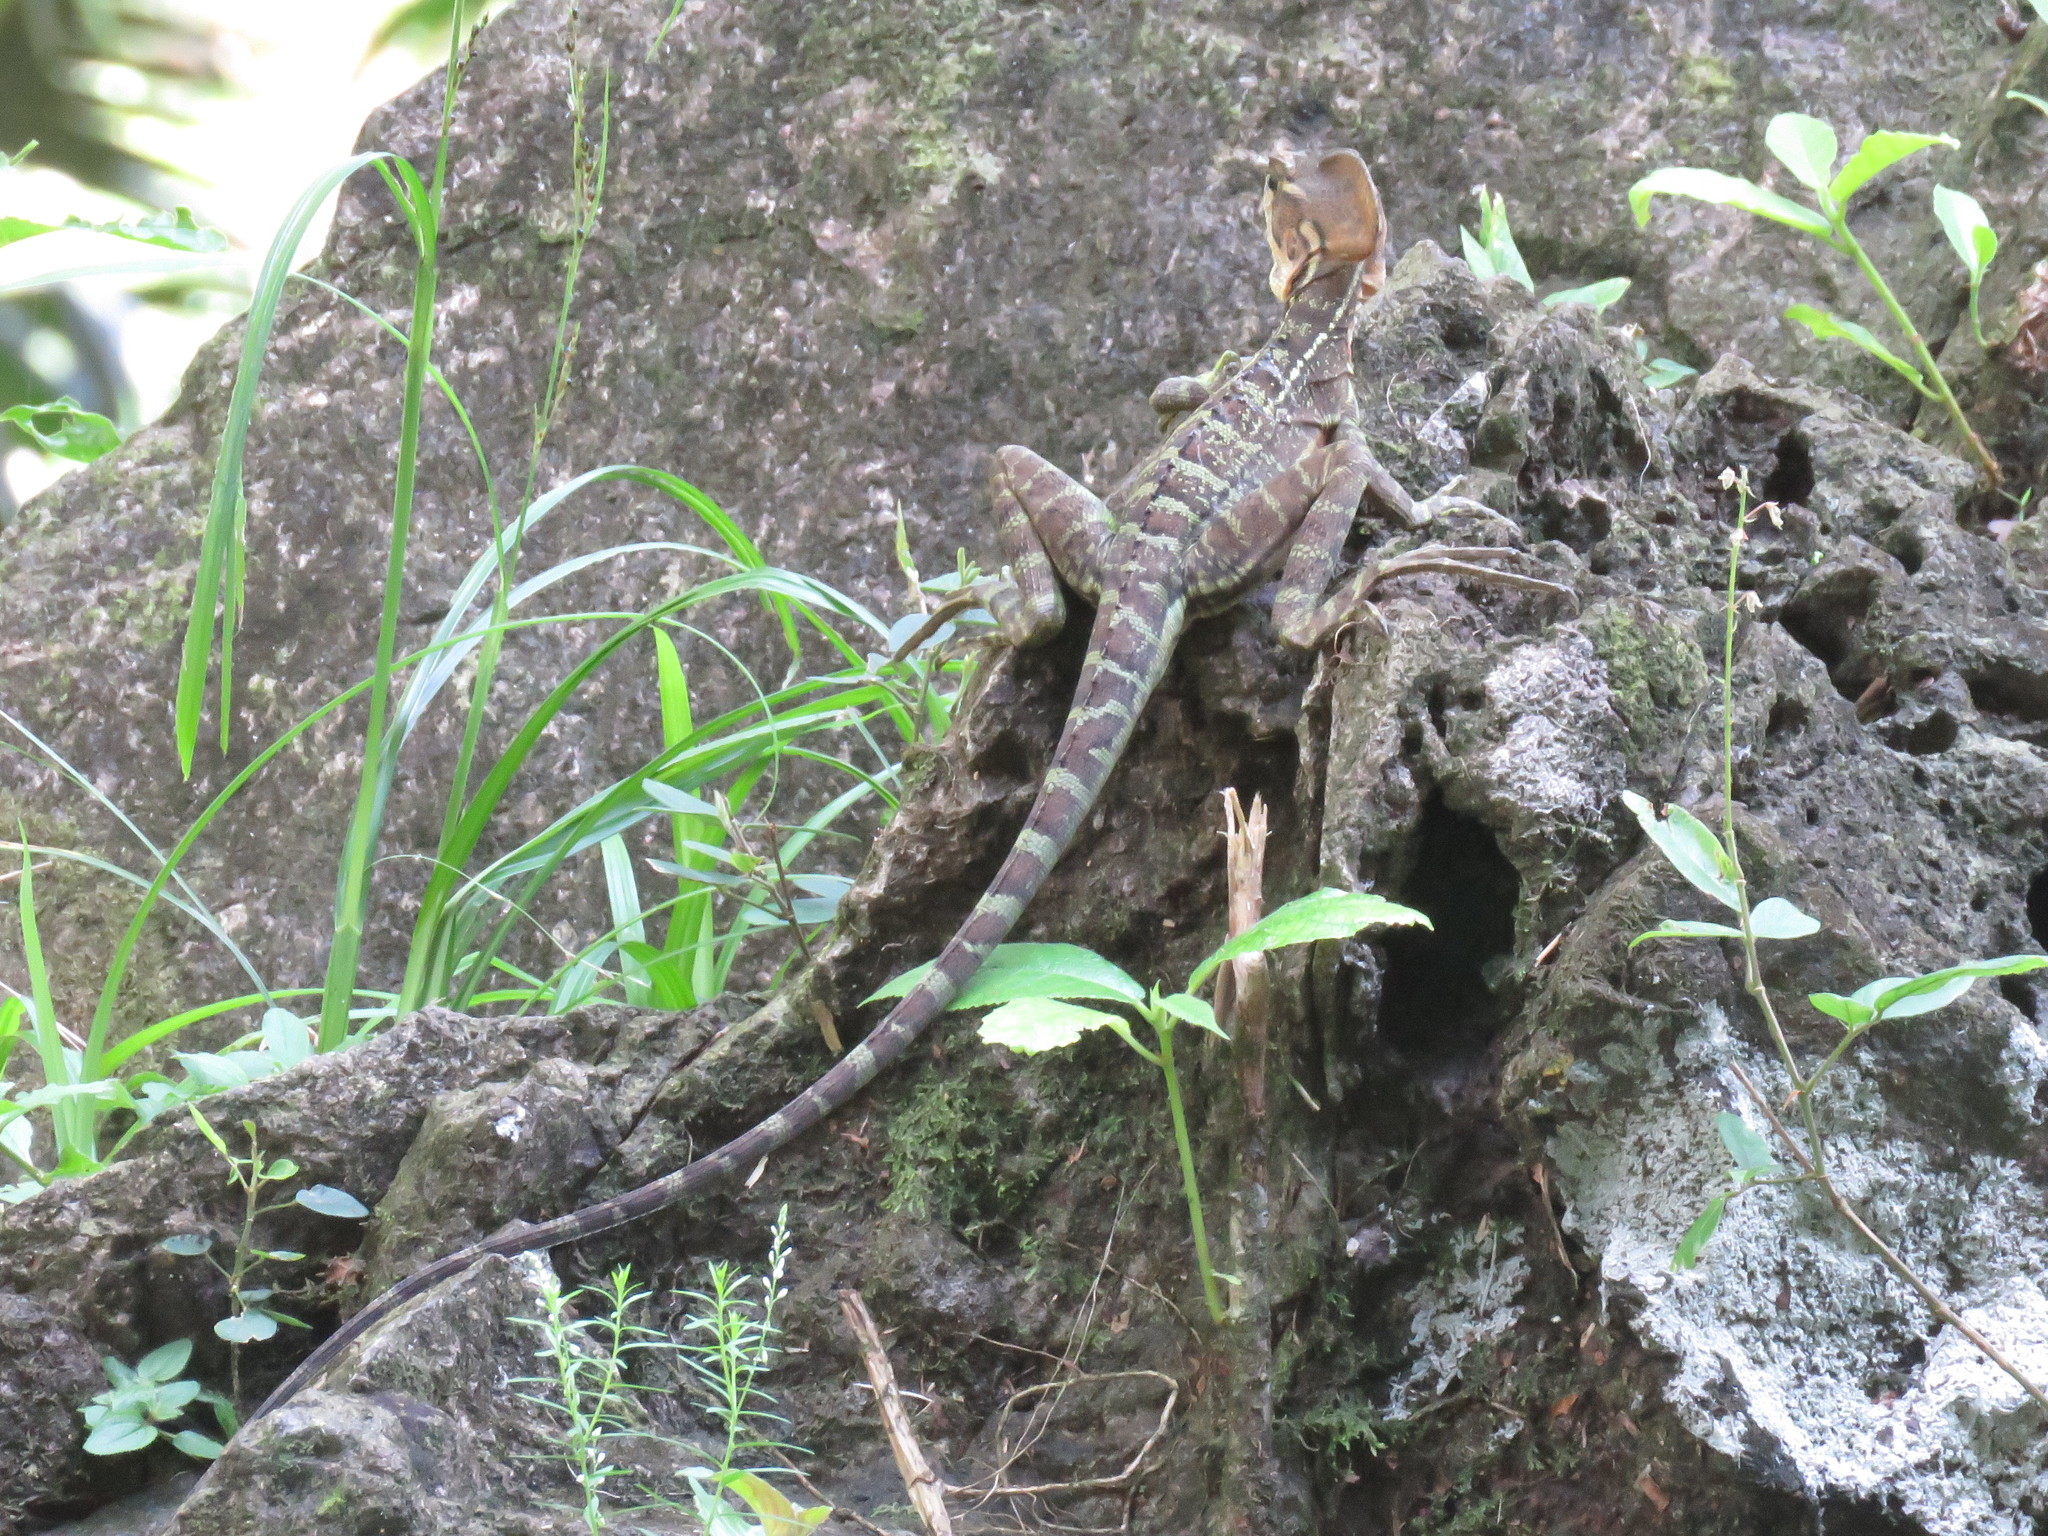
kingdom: Animalia
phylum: Chordata
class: Squamata
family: Corytophanidae
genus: Basiliscus
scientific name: Basiliscus galeritus
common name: Western basilisk
